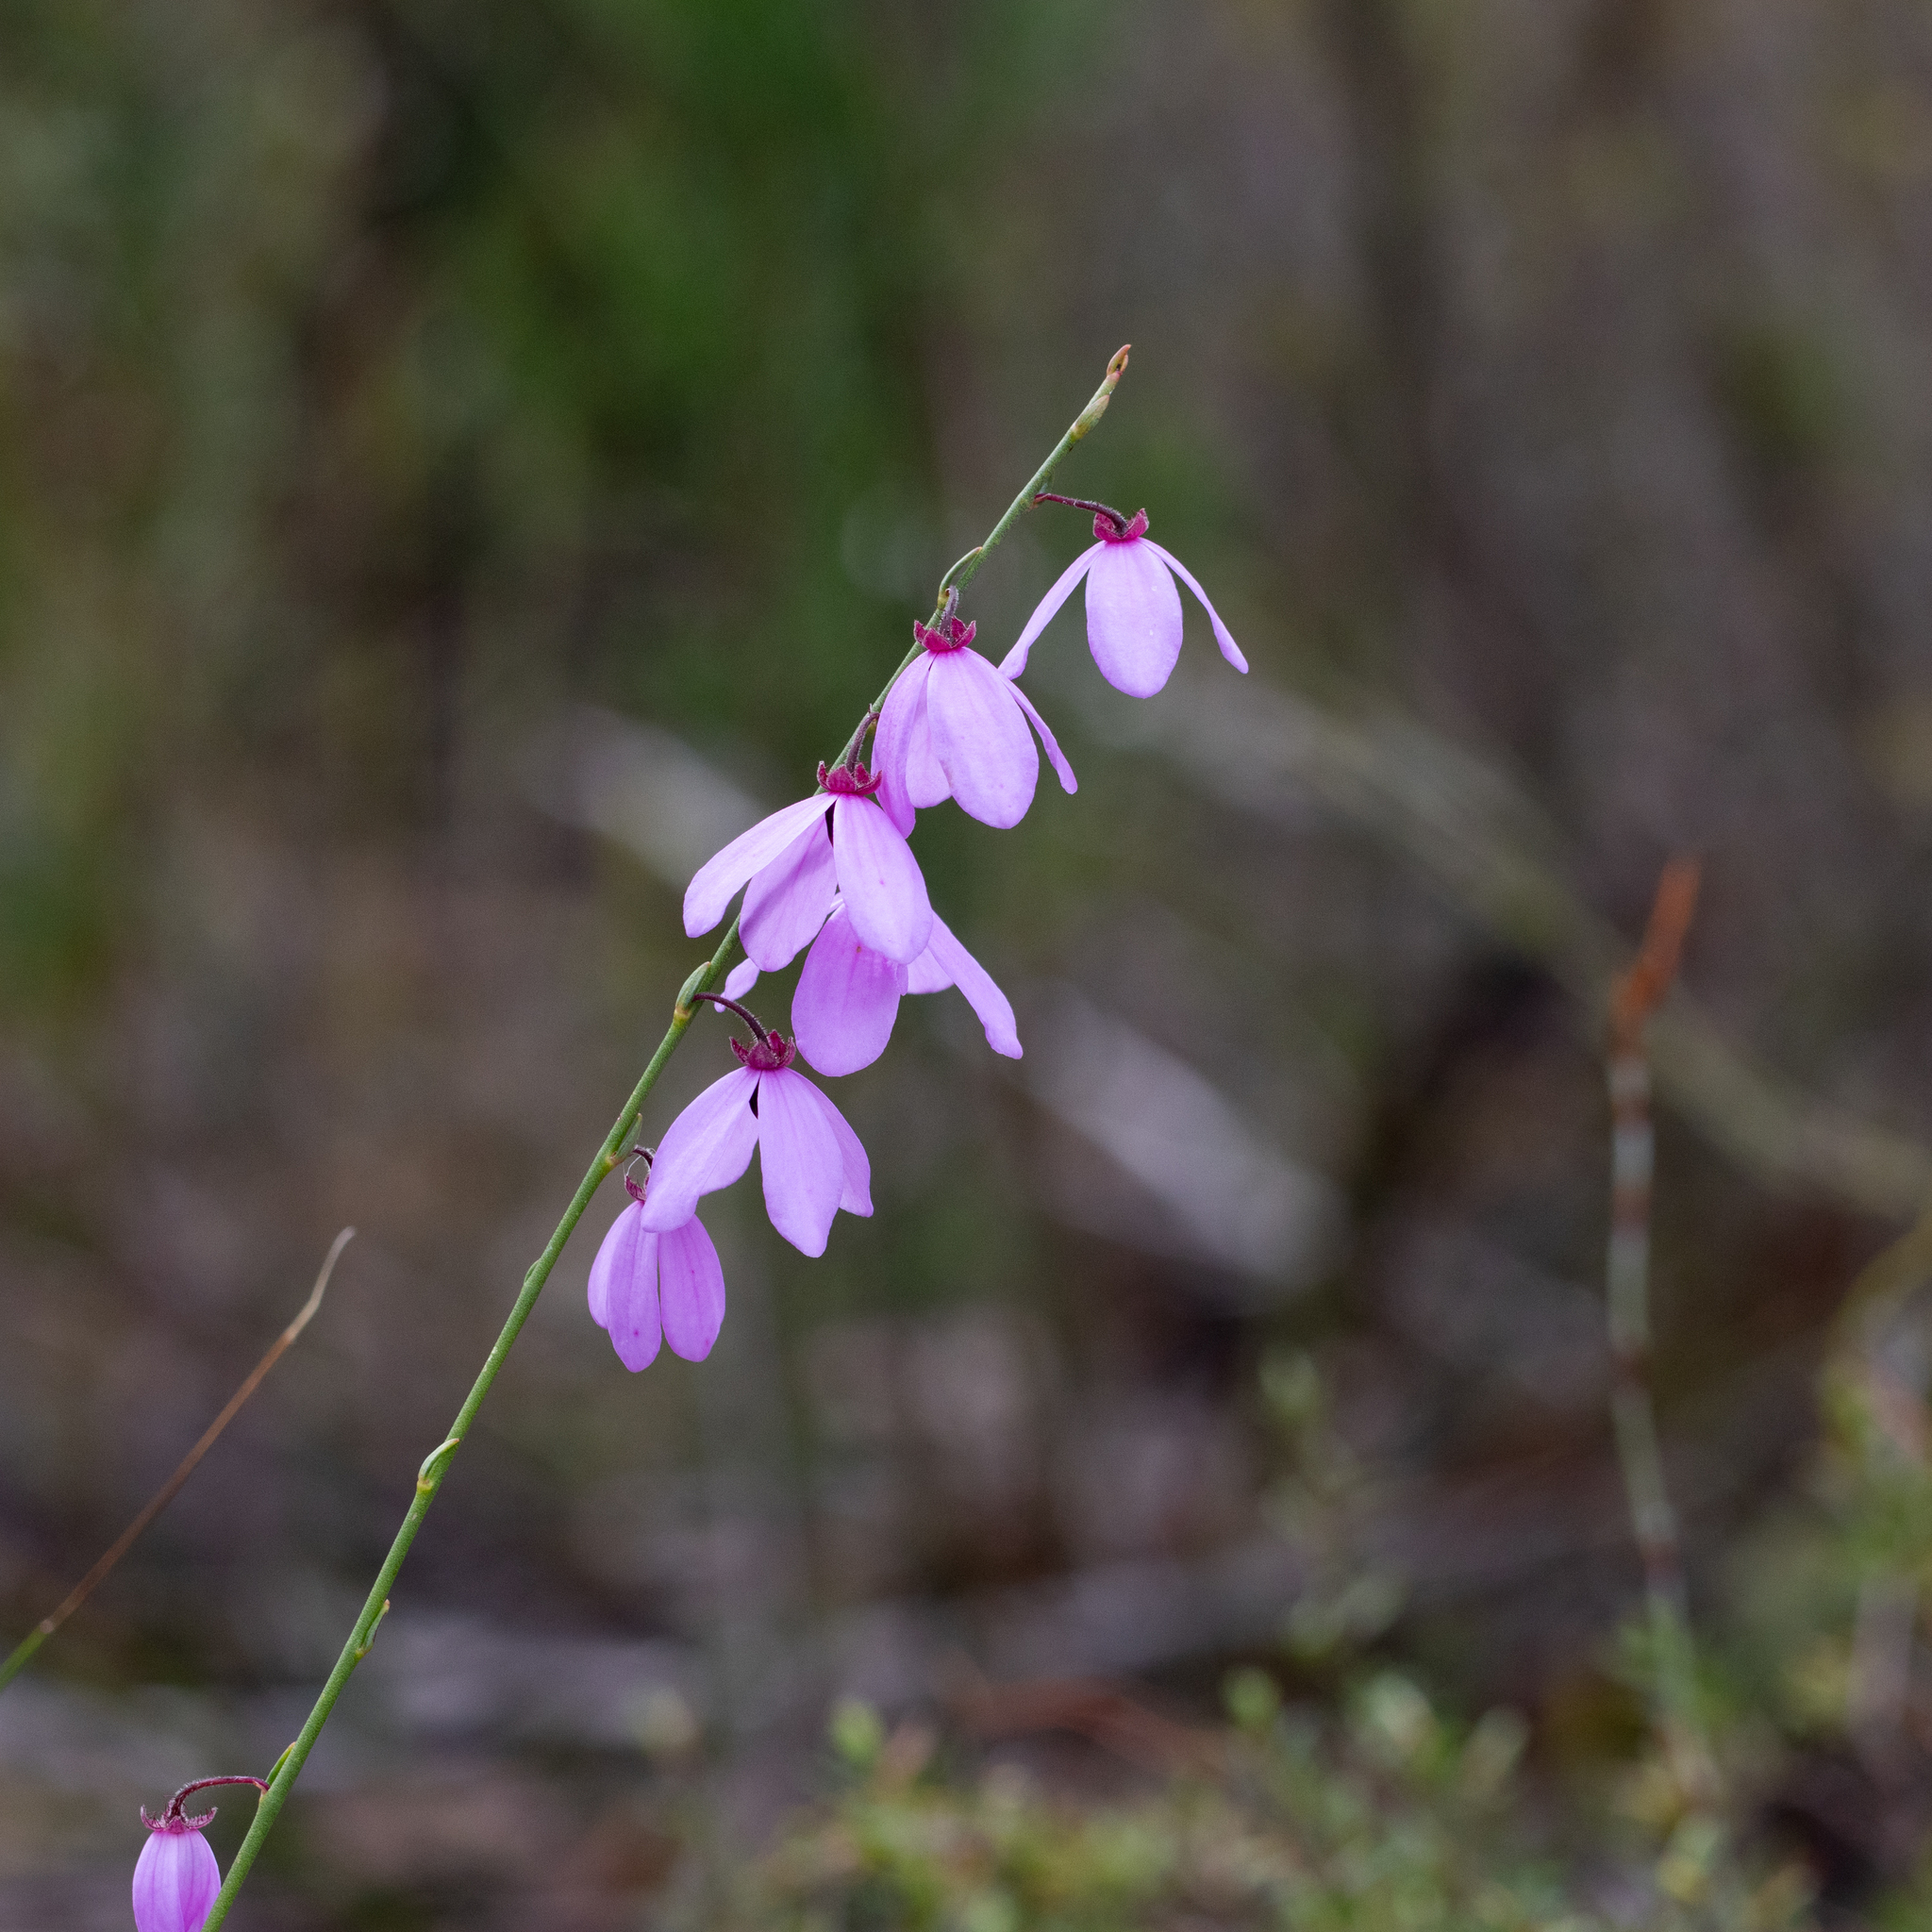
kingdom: Plantae
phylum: Tracheophyta
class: Magnoliopsida
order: Oxalidales
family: Elaeocarpaceae
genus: Tetratheca
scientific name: Tetratheca ciliata
